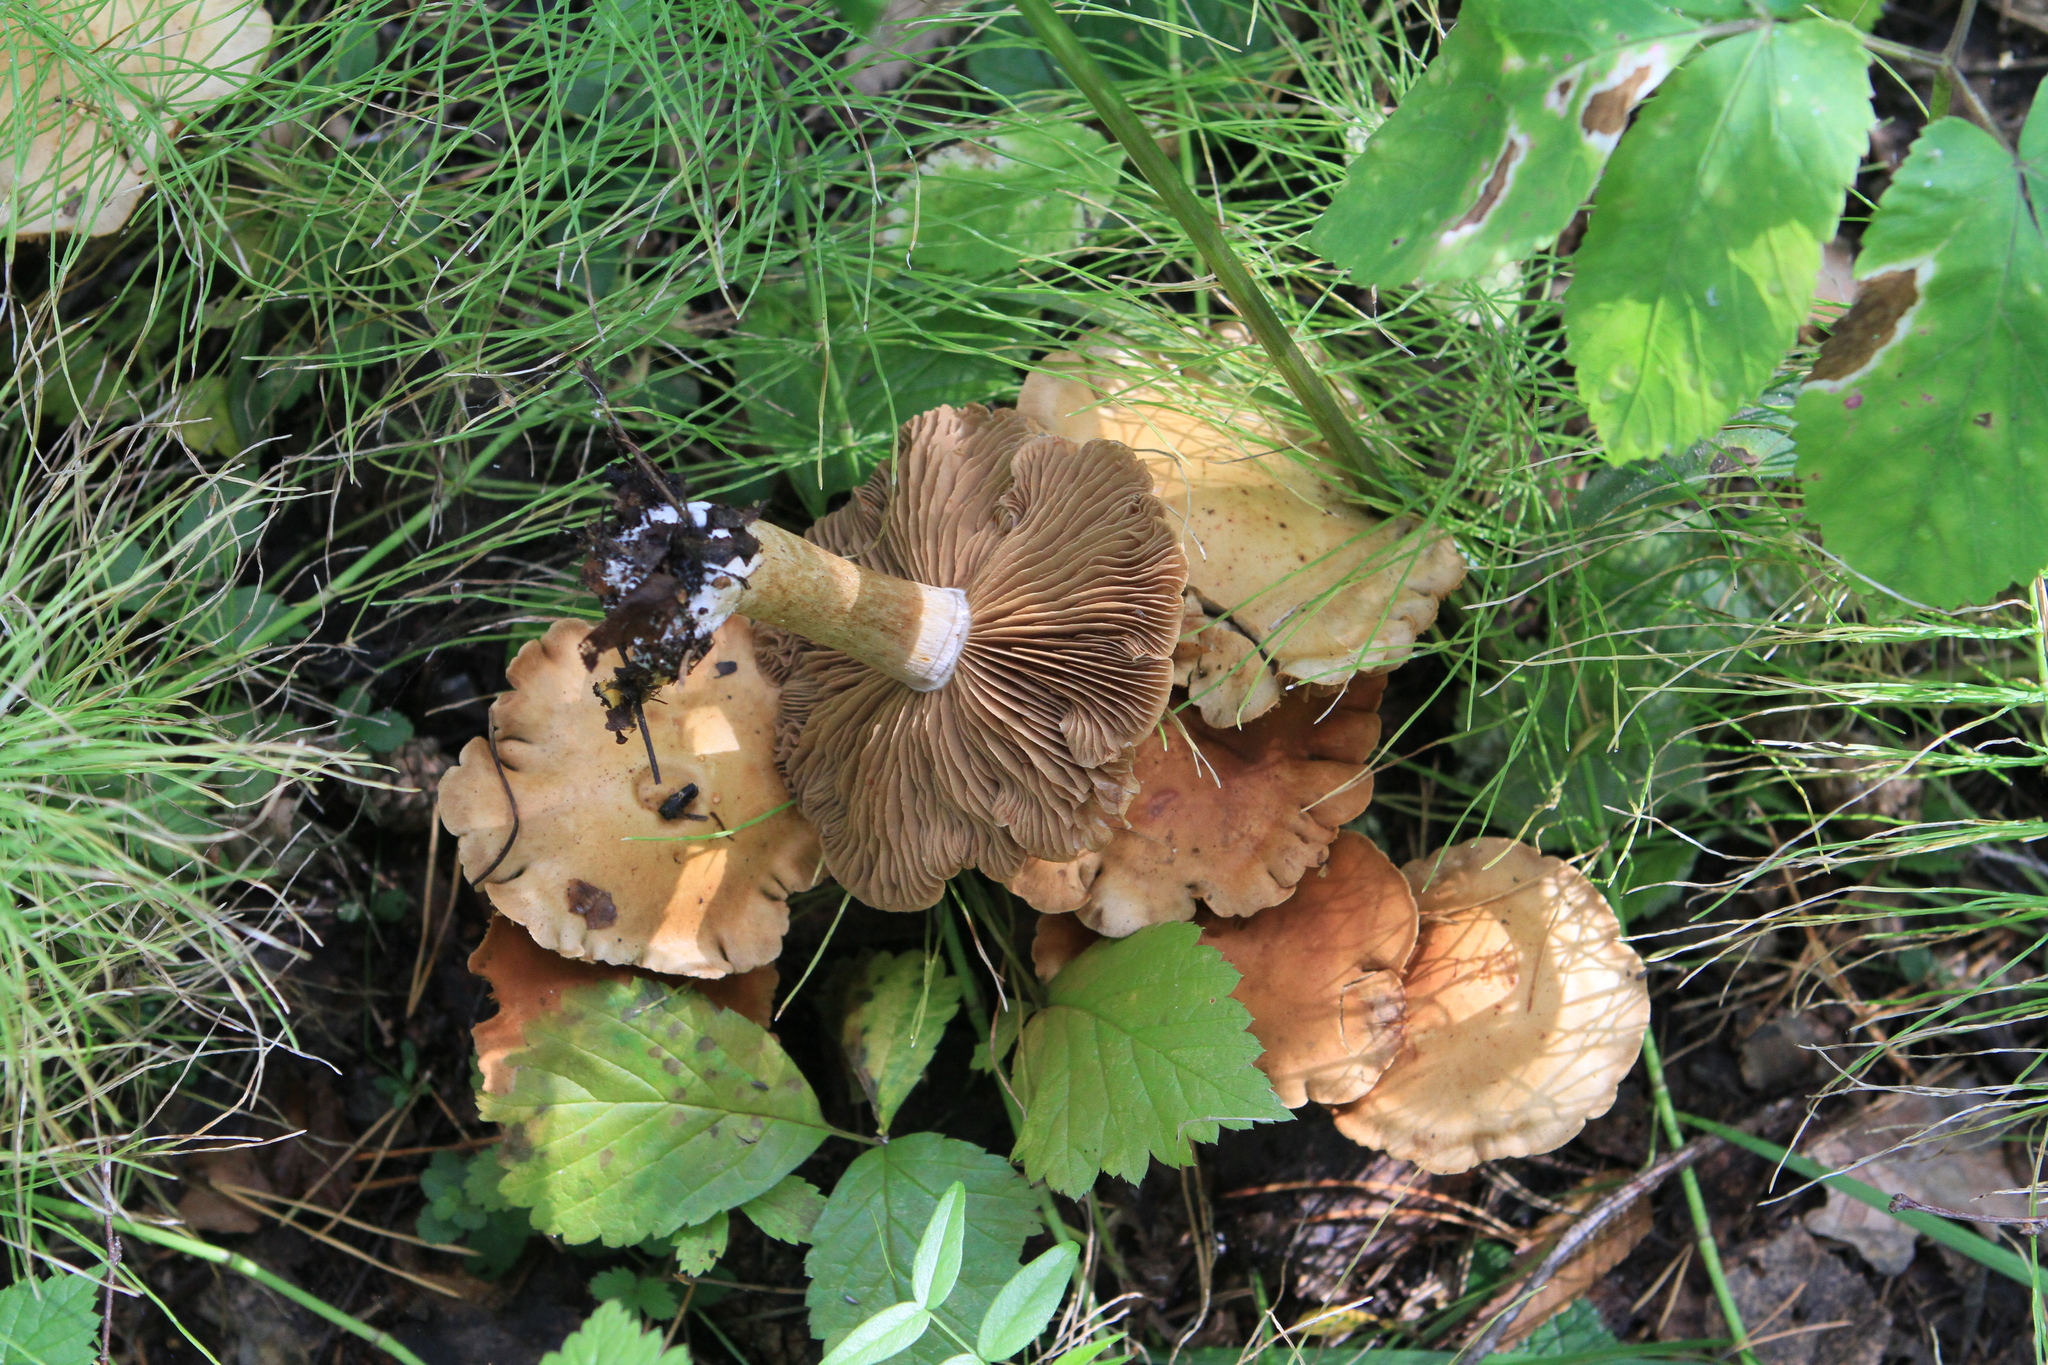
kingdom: Plantae
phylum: Tracheophyta
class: Polypodiopsida
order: Equisetales
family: Equisetaceae
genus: Equisetum
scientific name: Equisetum pratense
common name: Meadow horsetail
